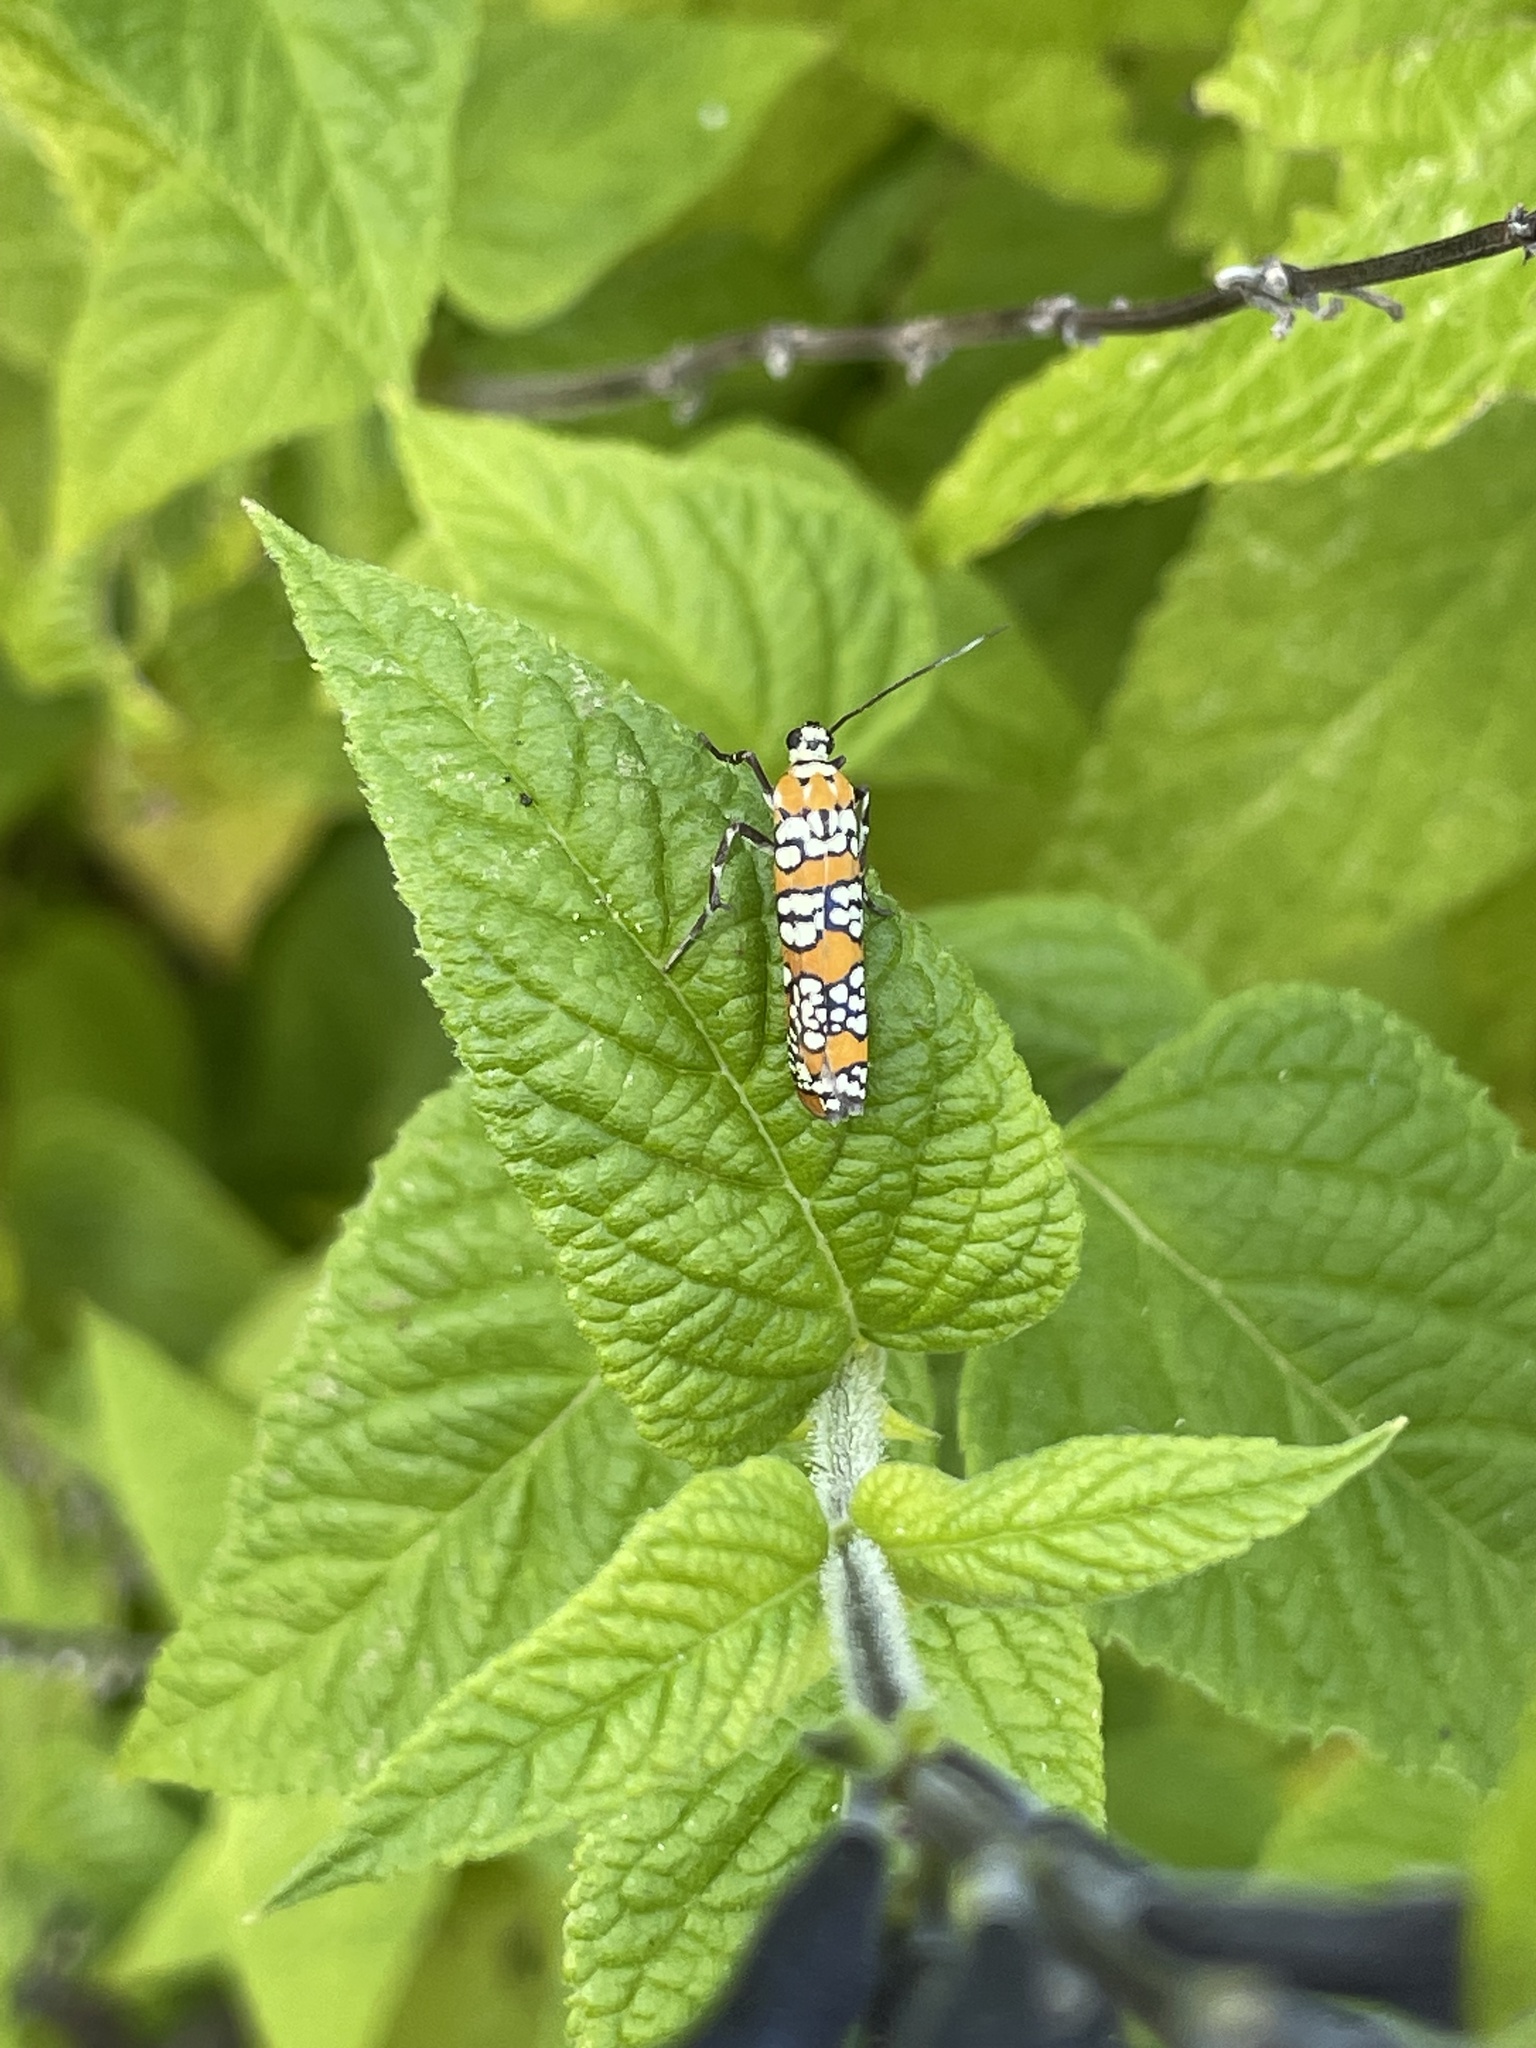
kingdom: Animalia
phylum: Arthropoda
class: Insecta
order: Lepidoptera
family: Attevidae
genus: Atteva
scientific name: Atteva punctella
